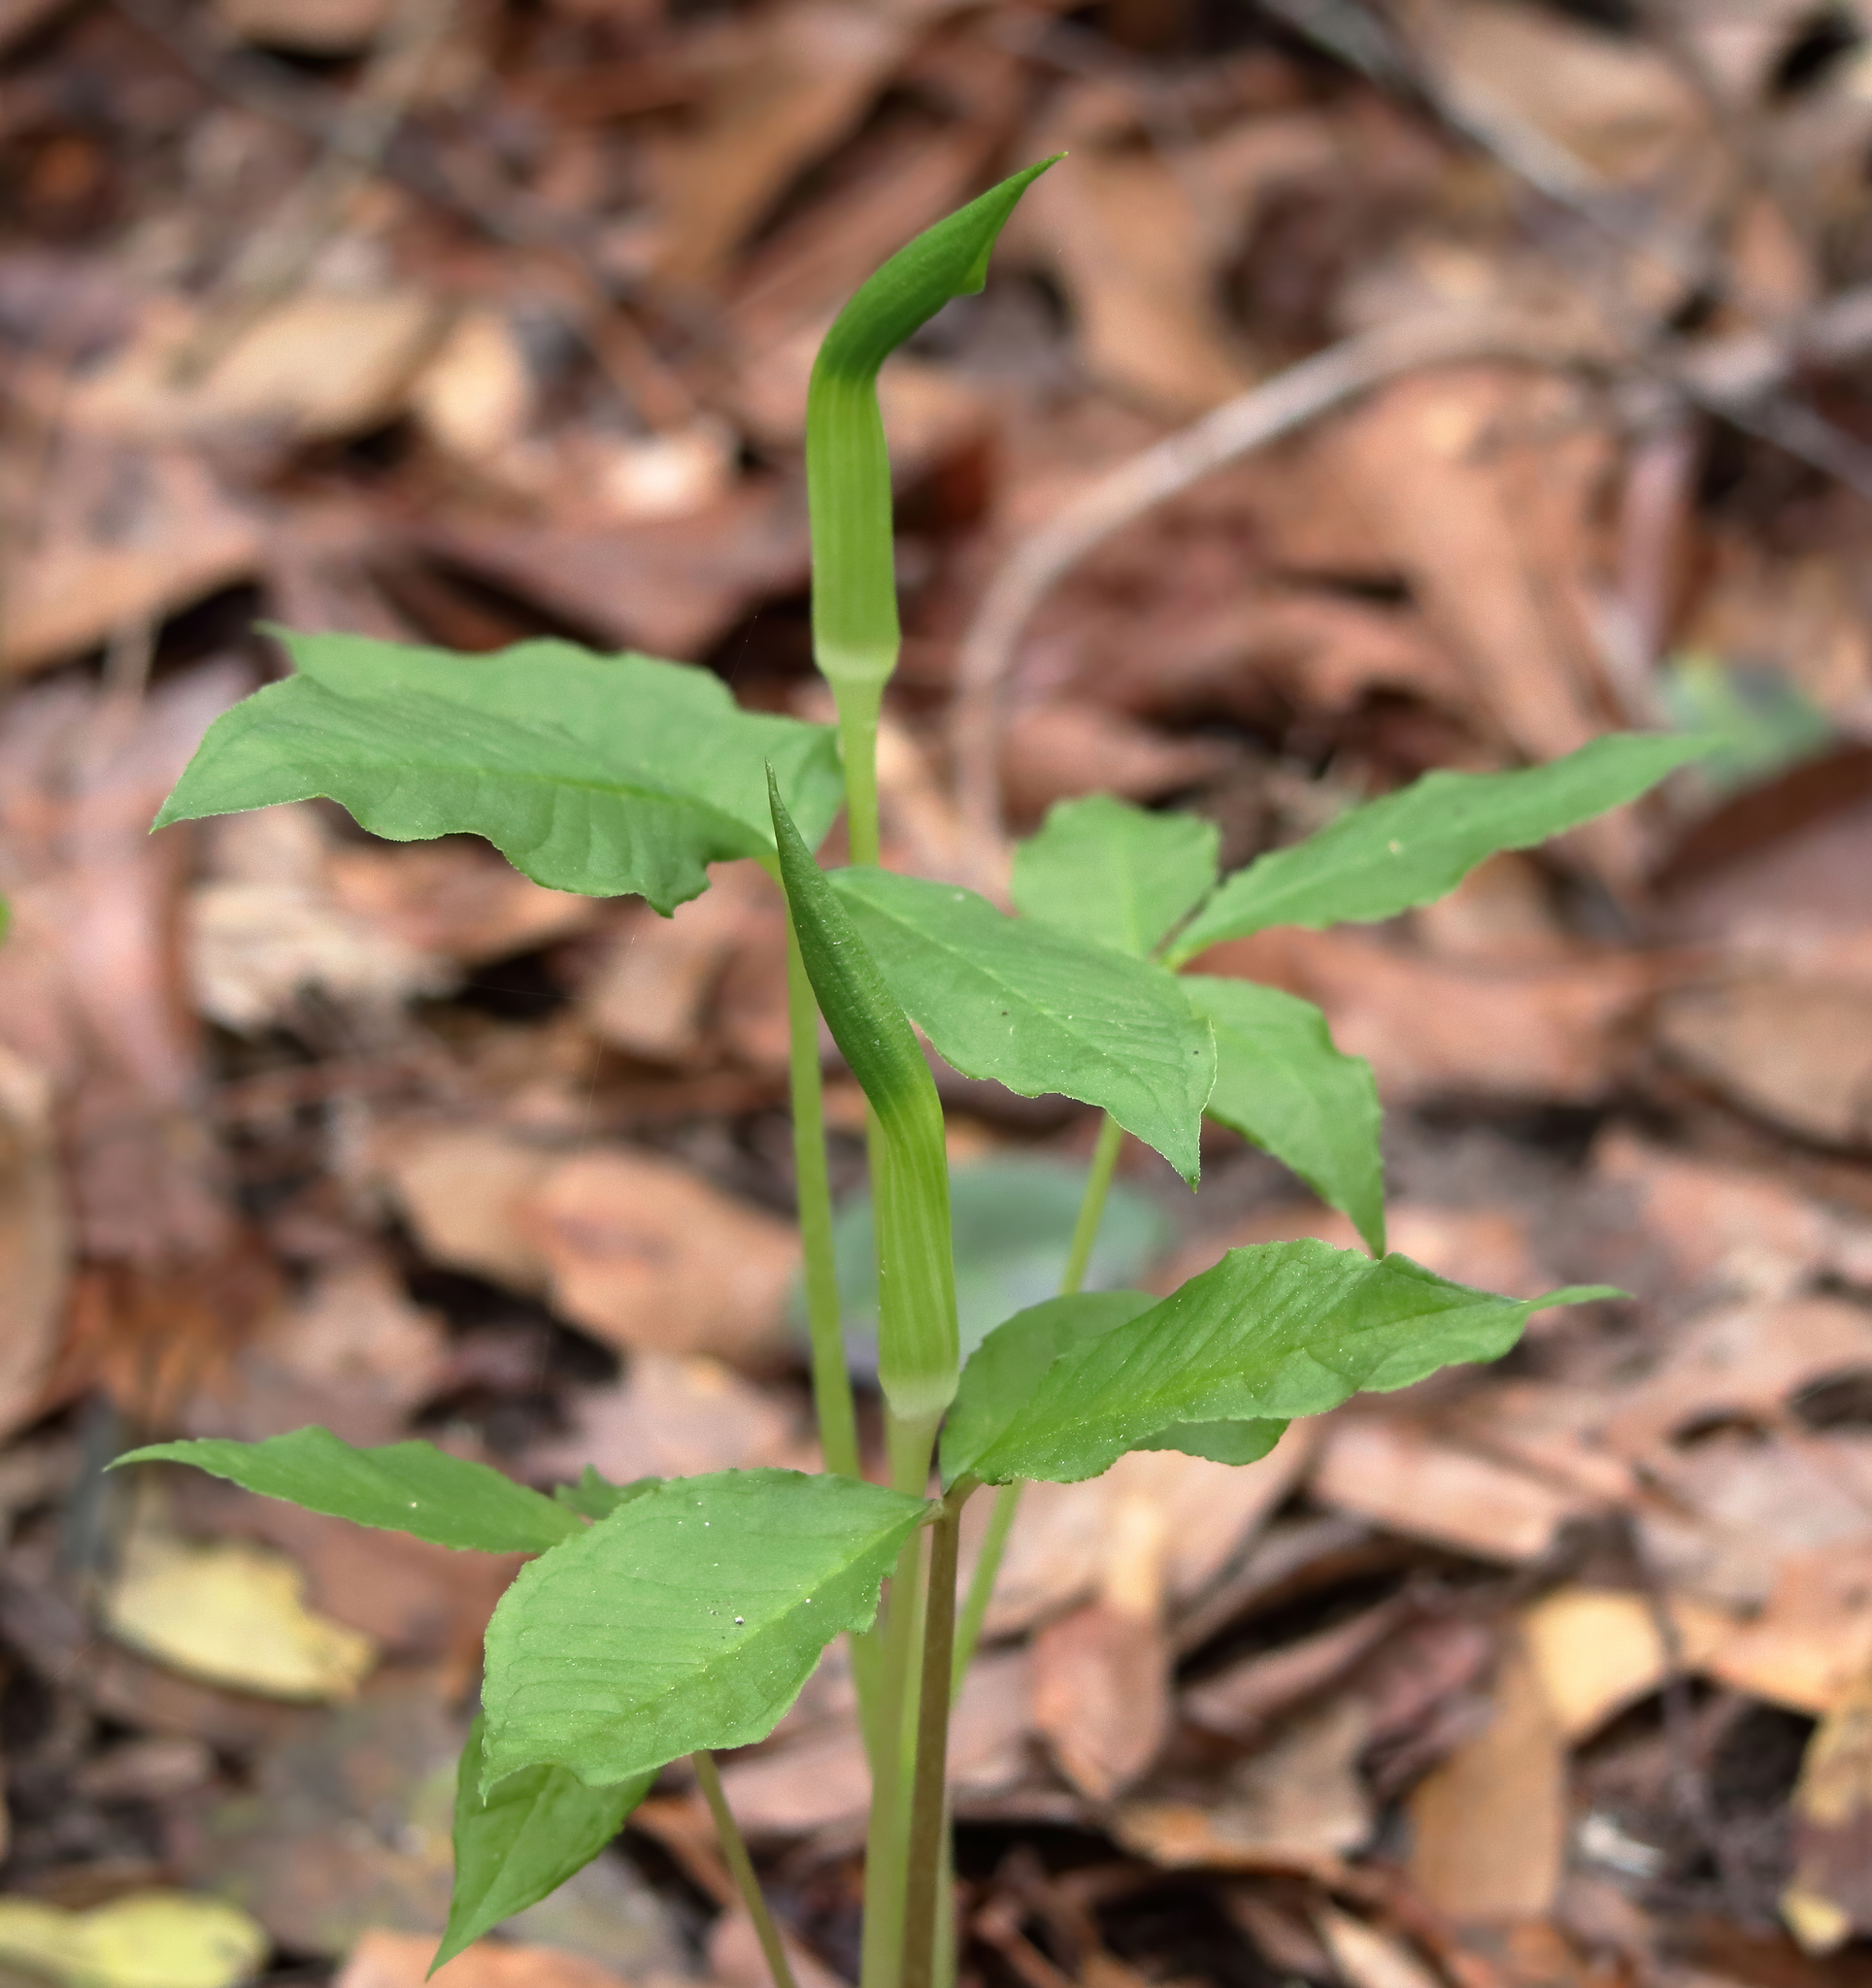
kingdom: Plantae
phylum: Tracheophyta
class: Liliopsida
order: Alismatales
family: Araceae
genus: Arisaema
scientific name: Arisaema triphyllum
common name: Jack-in-the-pulpit
